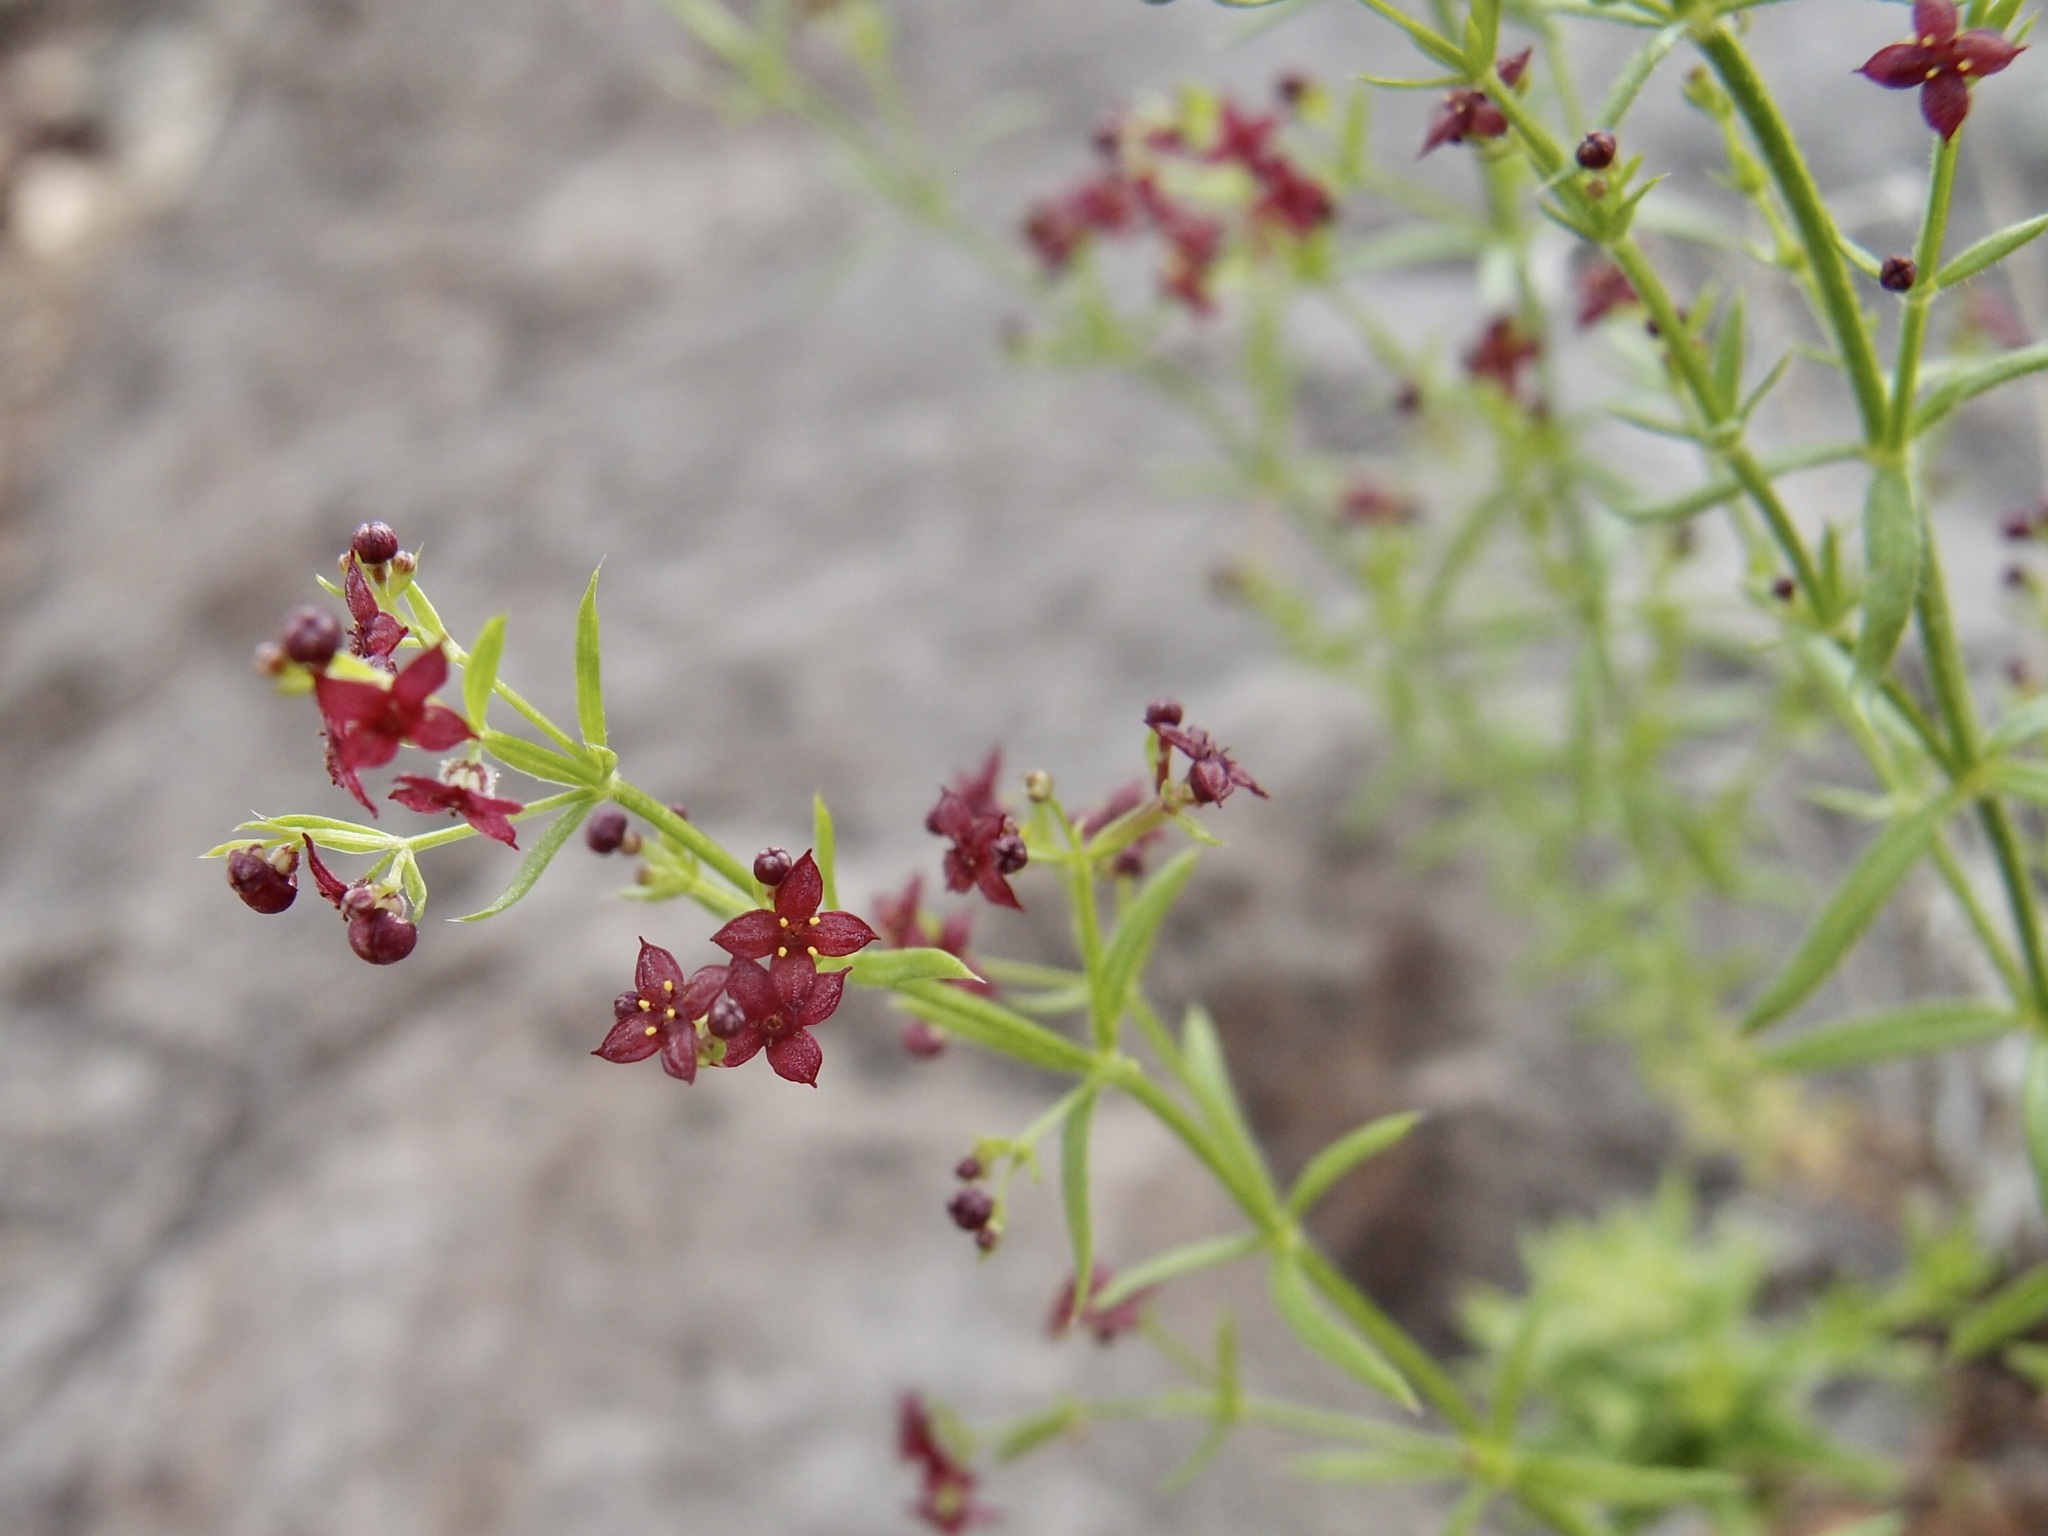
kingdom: Plantae
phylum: Tracheophyta
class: Magnoliopsida
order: Gentianales
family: Rubiaceae
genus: Galium
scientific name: Galium wrightii
